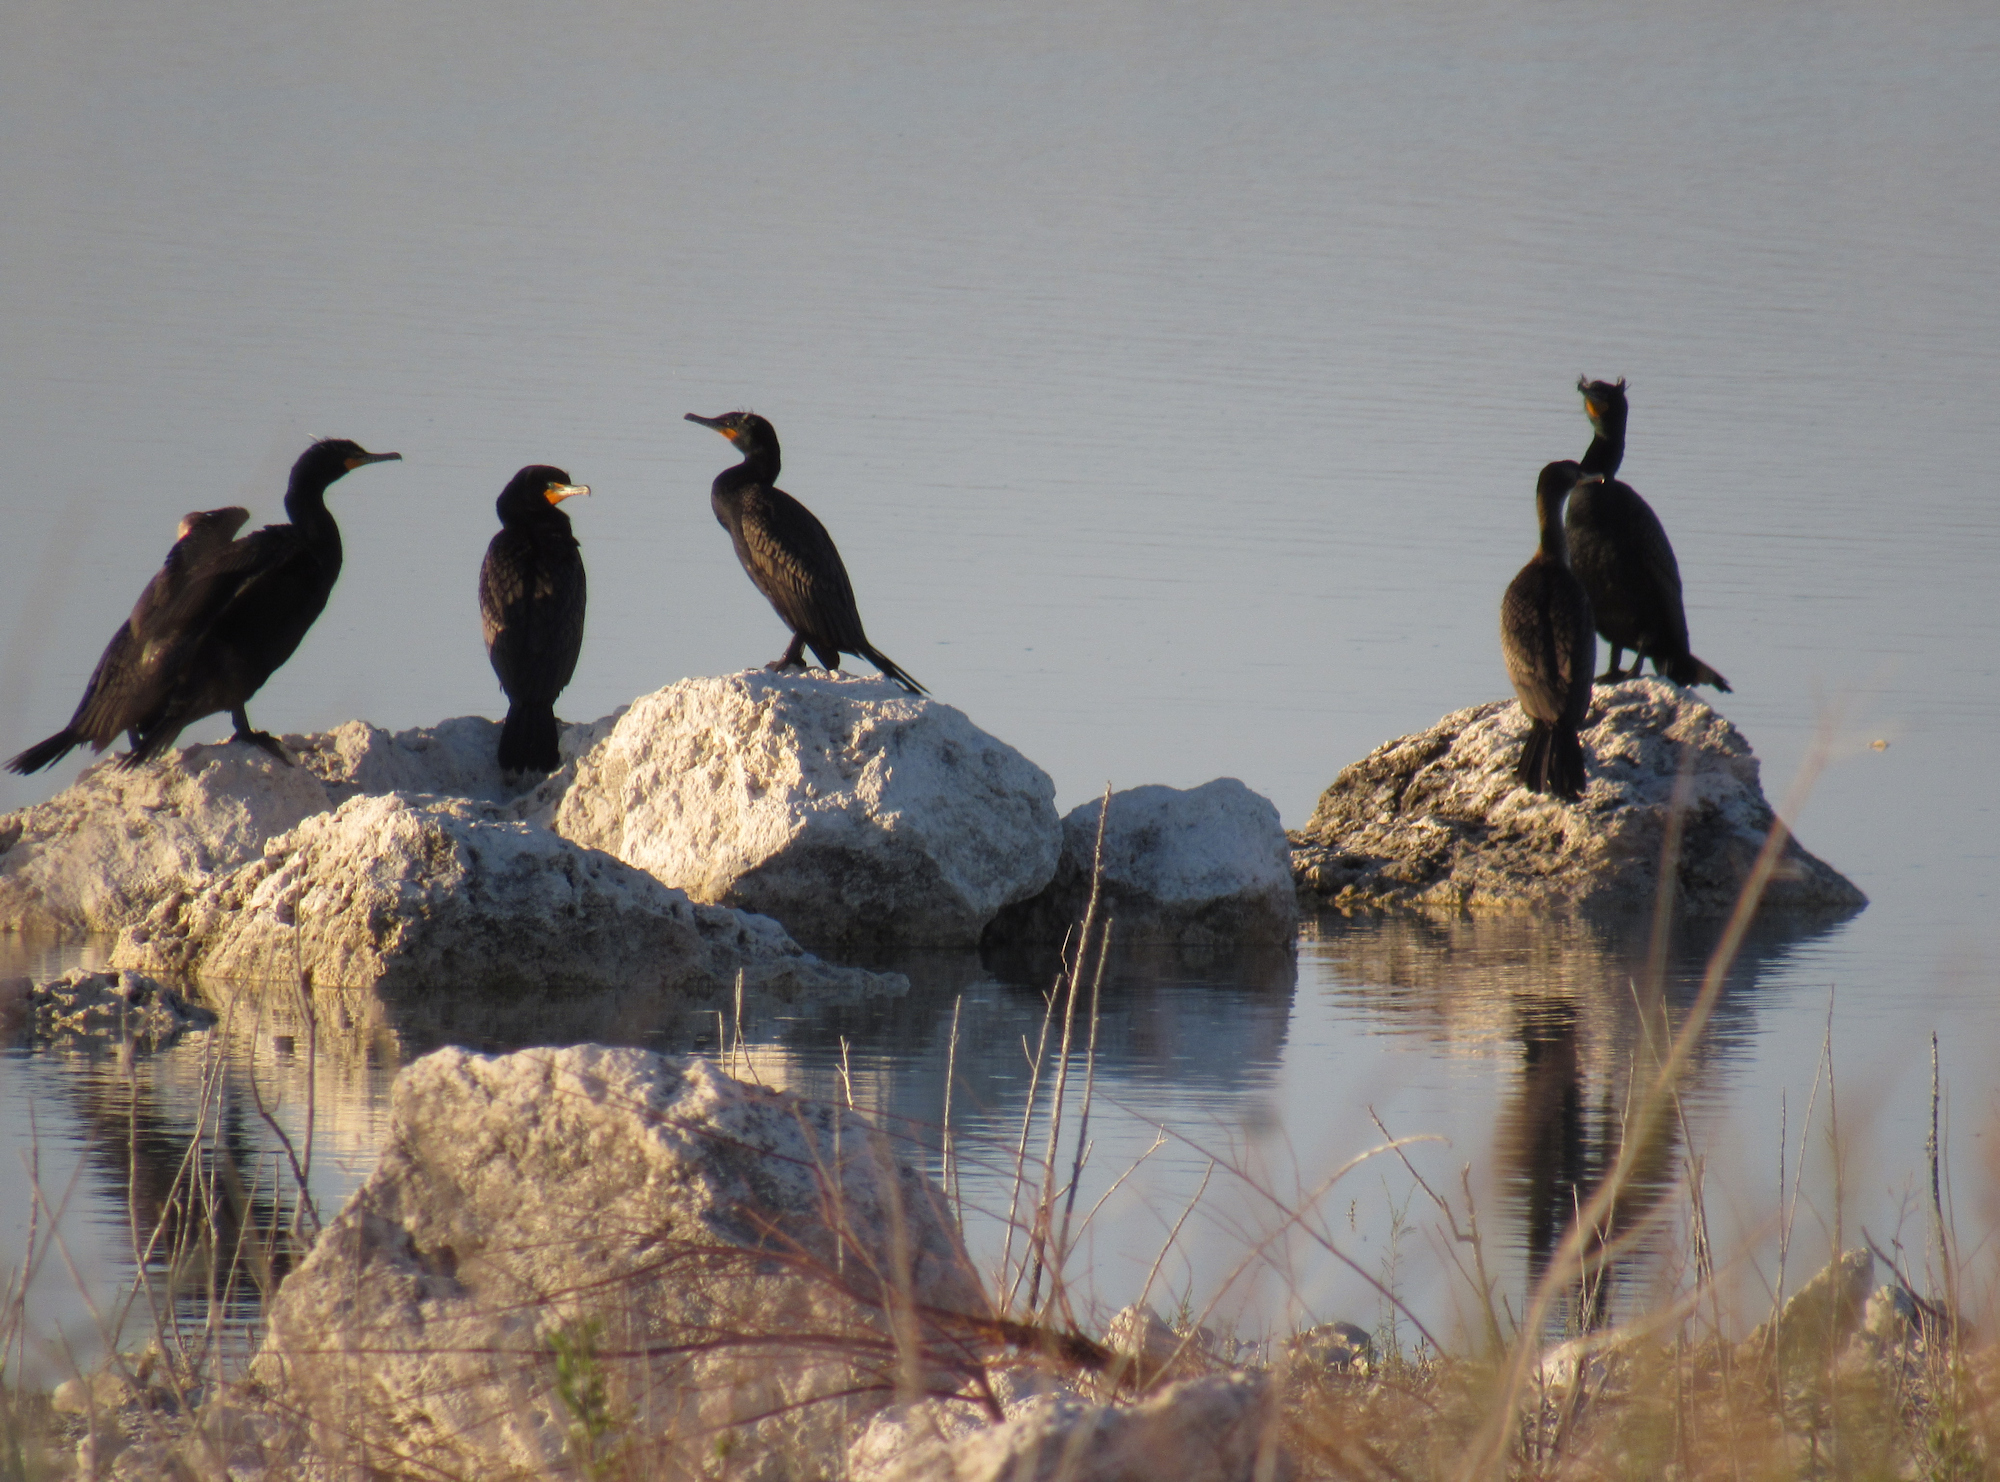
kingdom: Animalia
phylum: Chordata
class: Aves
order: Suliformes
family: Phalacrocoracidae
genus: Phalacrocorax
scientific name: Phalacrocorax auritus
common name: Double-crested cormorant
